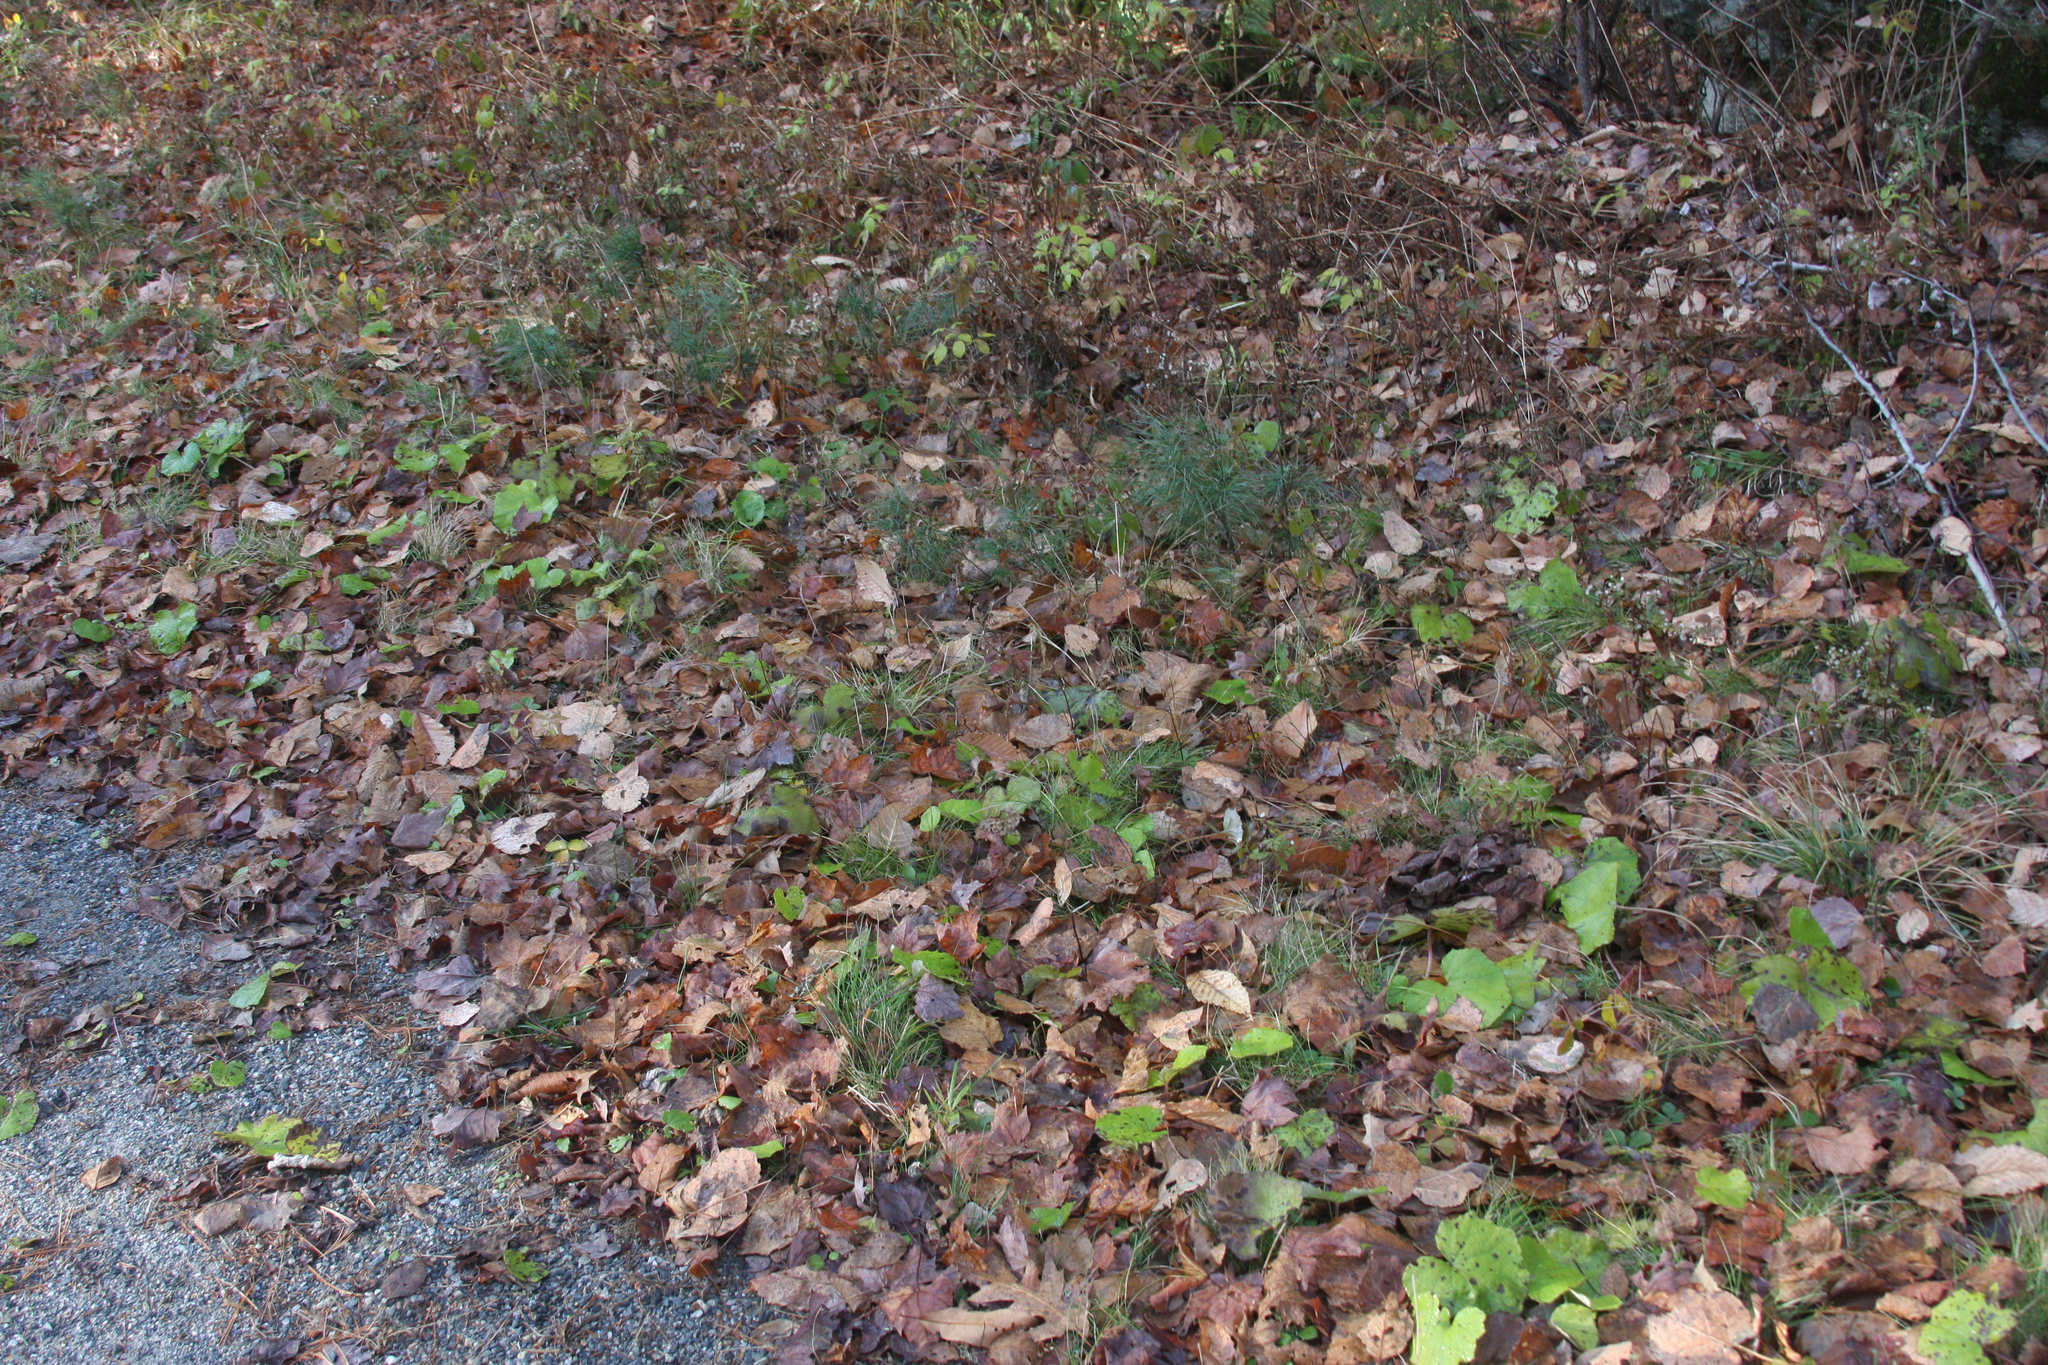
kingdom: Plantae
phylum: Tracheophyta
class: Magnoliopsida
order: Asterales
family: Asteraceae
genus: Tussilago
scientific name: Tussilago farfara
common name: Coltsfoot
